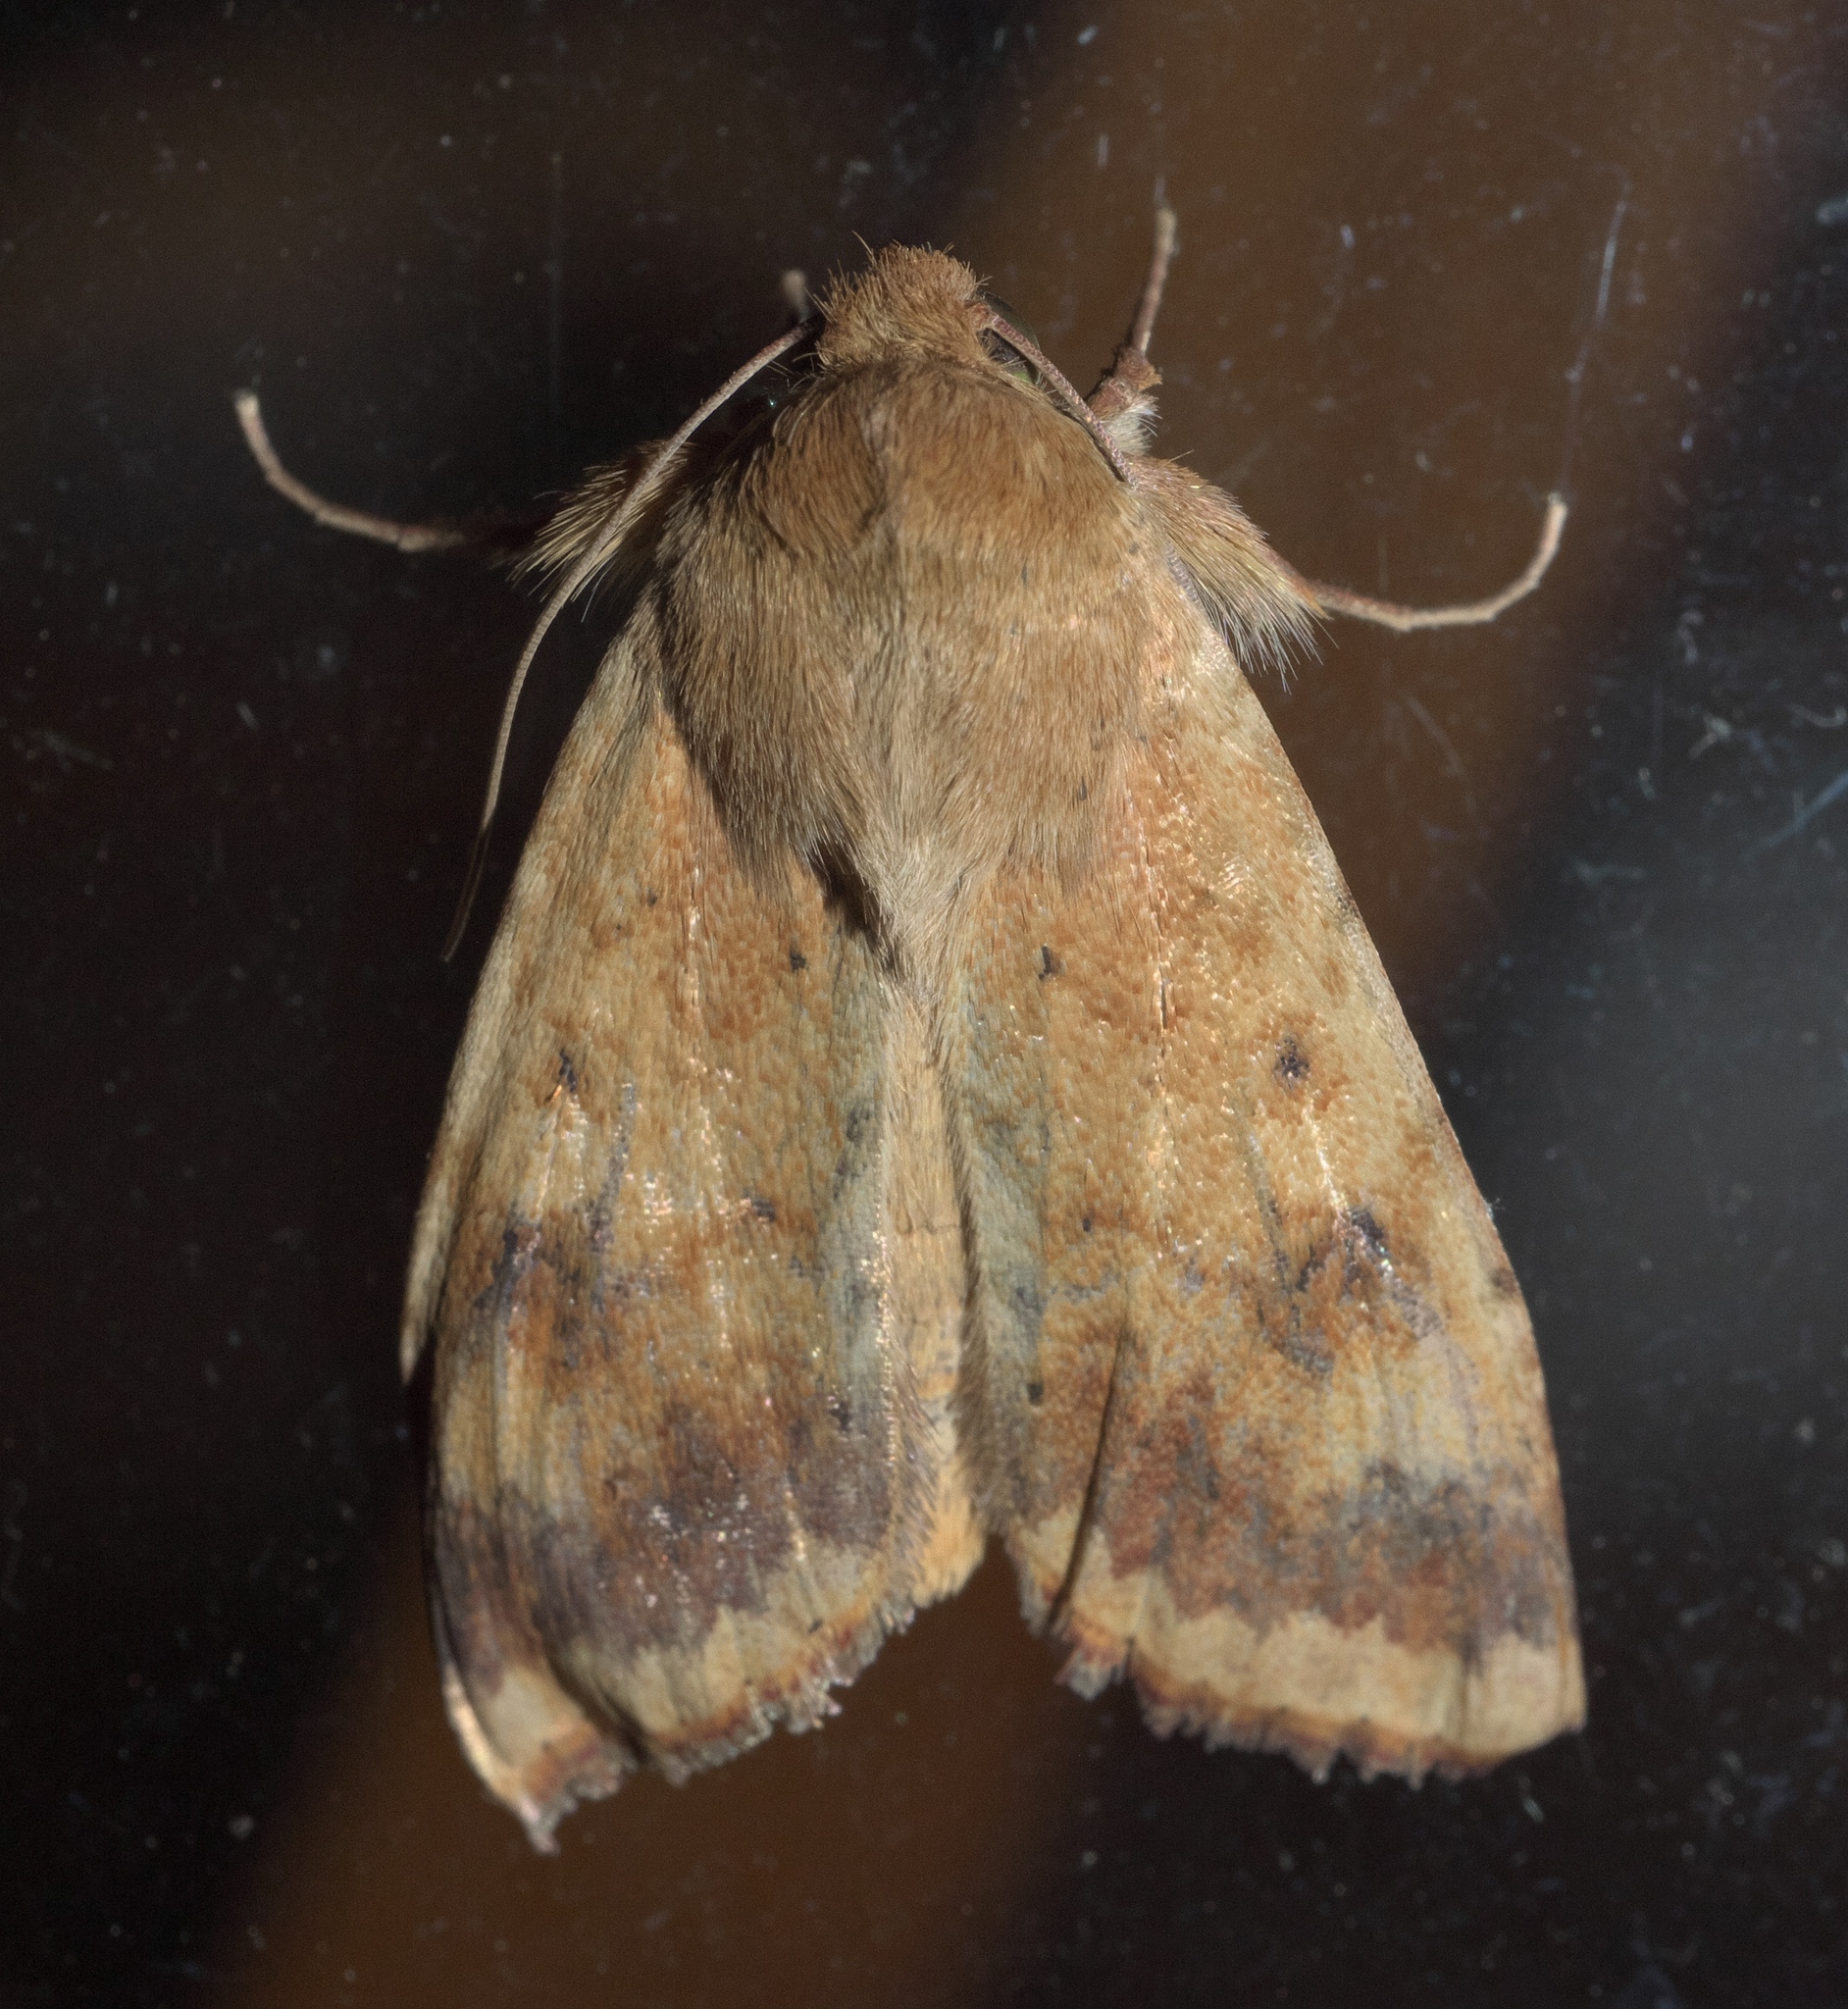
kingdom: Animalia
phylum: Arthropoda
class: Insecta
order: Lepidoptera
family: Noctuidae
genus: Helicoverpa
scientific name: Helicoverpa zea
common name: Bollworm
